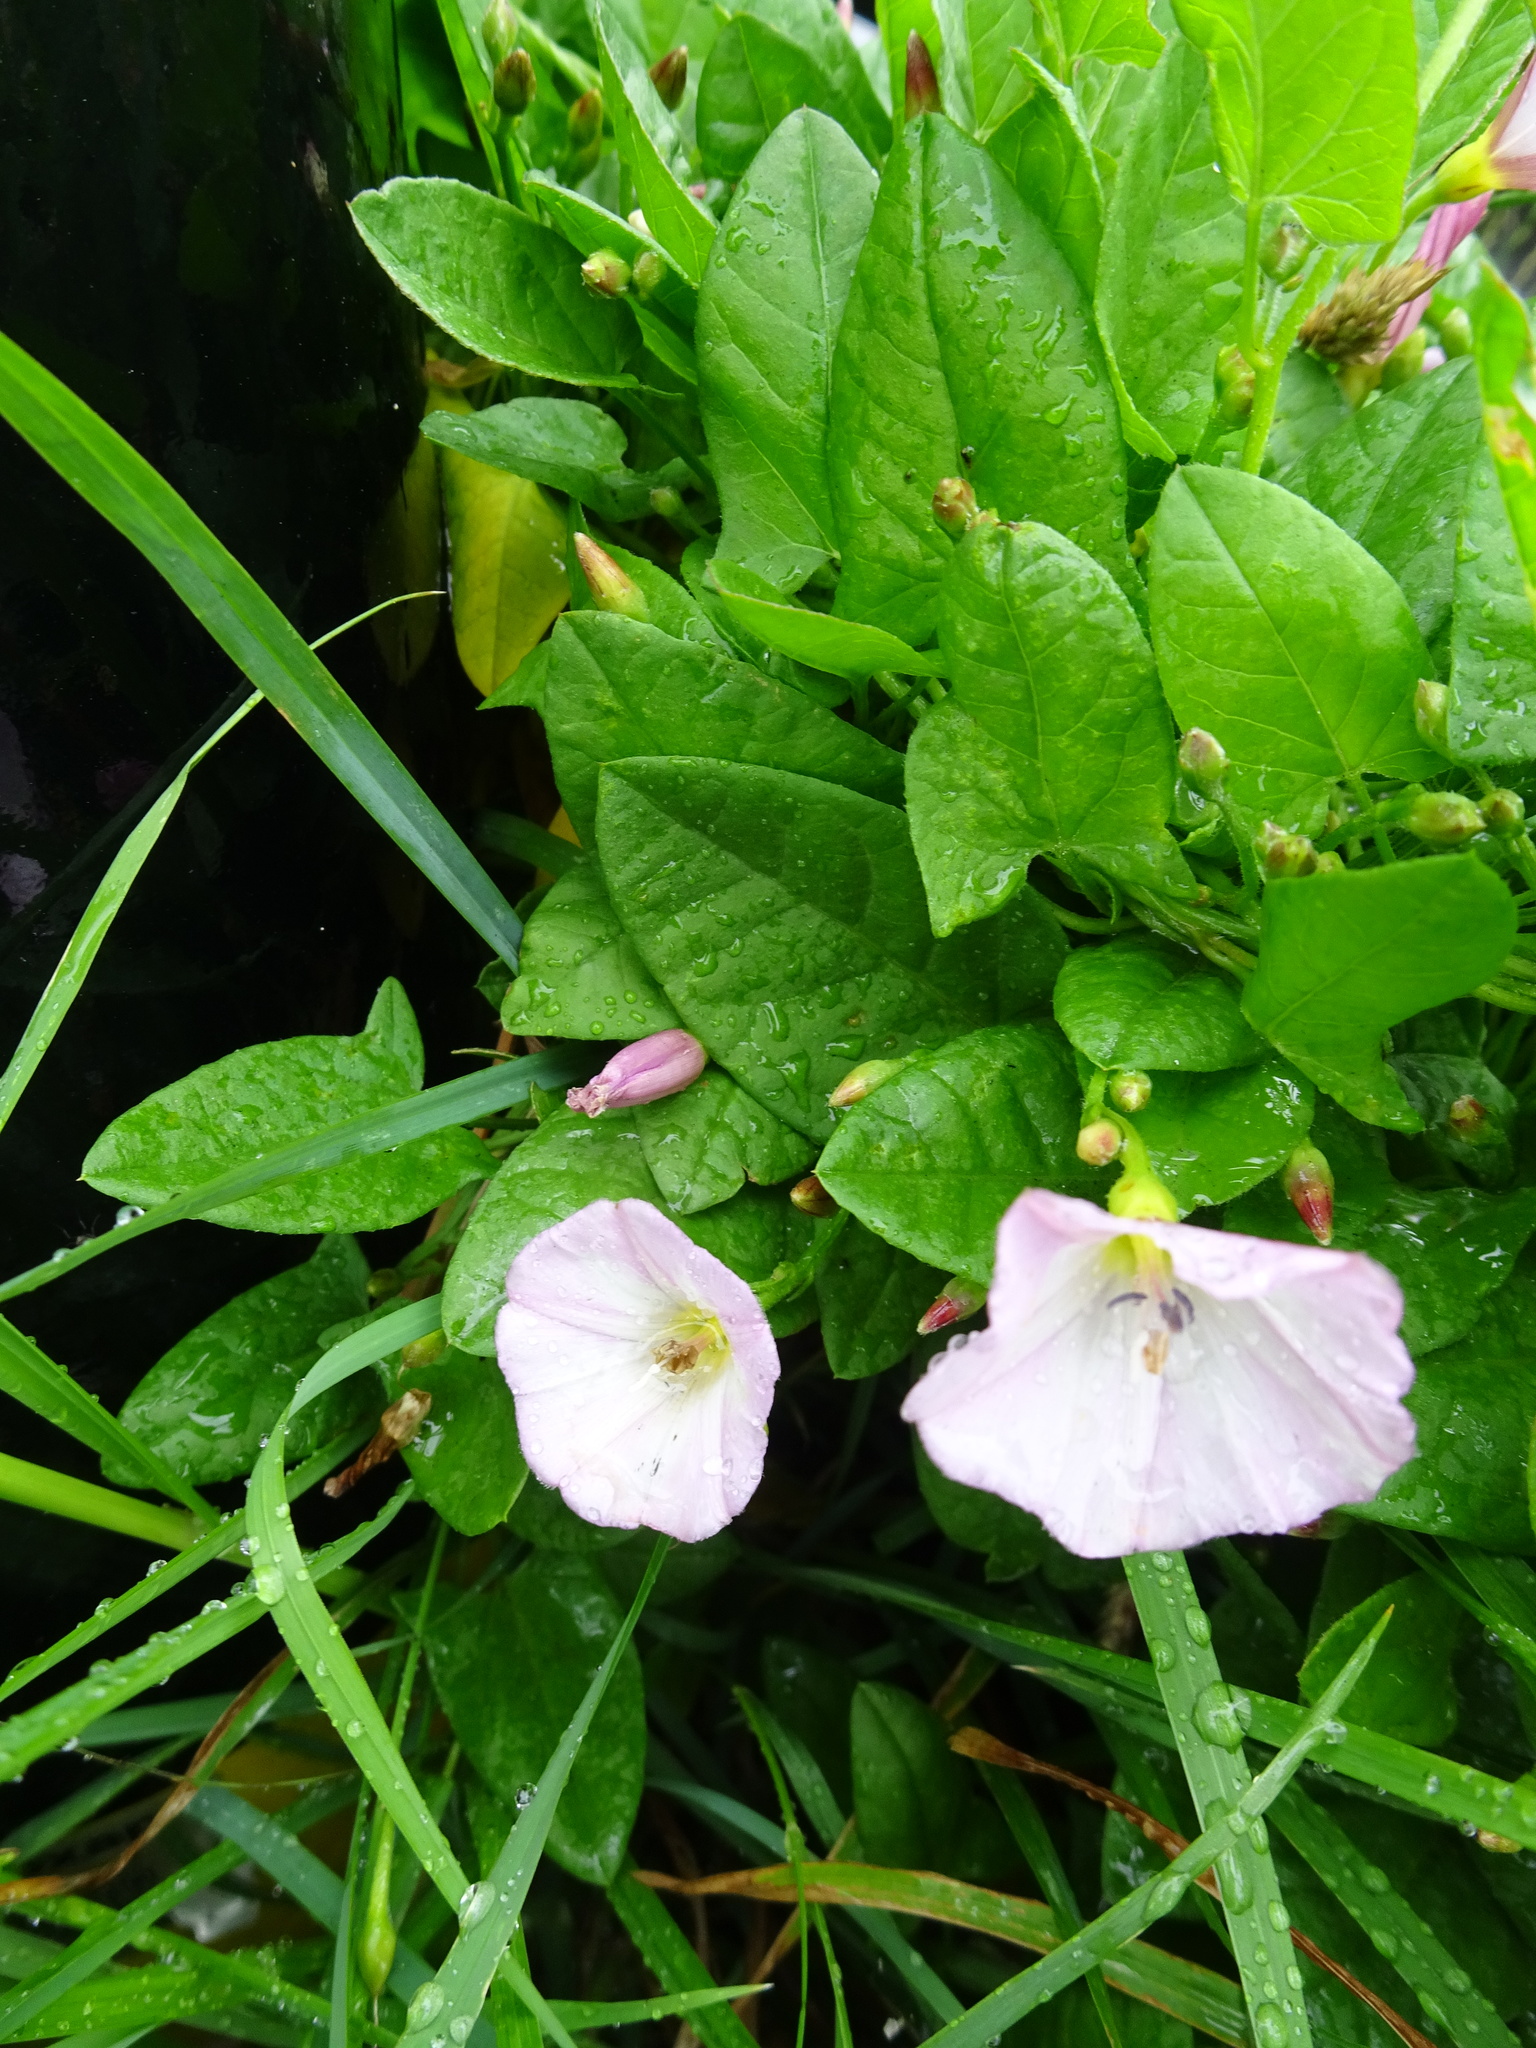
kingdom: Plantae
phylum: Tracheophyta
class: Magnoliopsida
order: Solanales
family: Convolvulaceae
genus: Convolvulus
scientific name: Convolvulus arvensis
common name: Field bindweed
